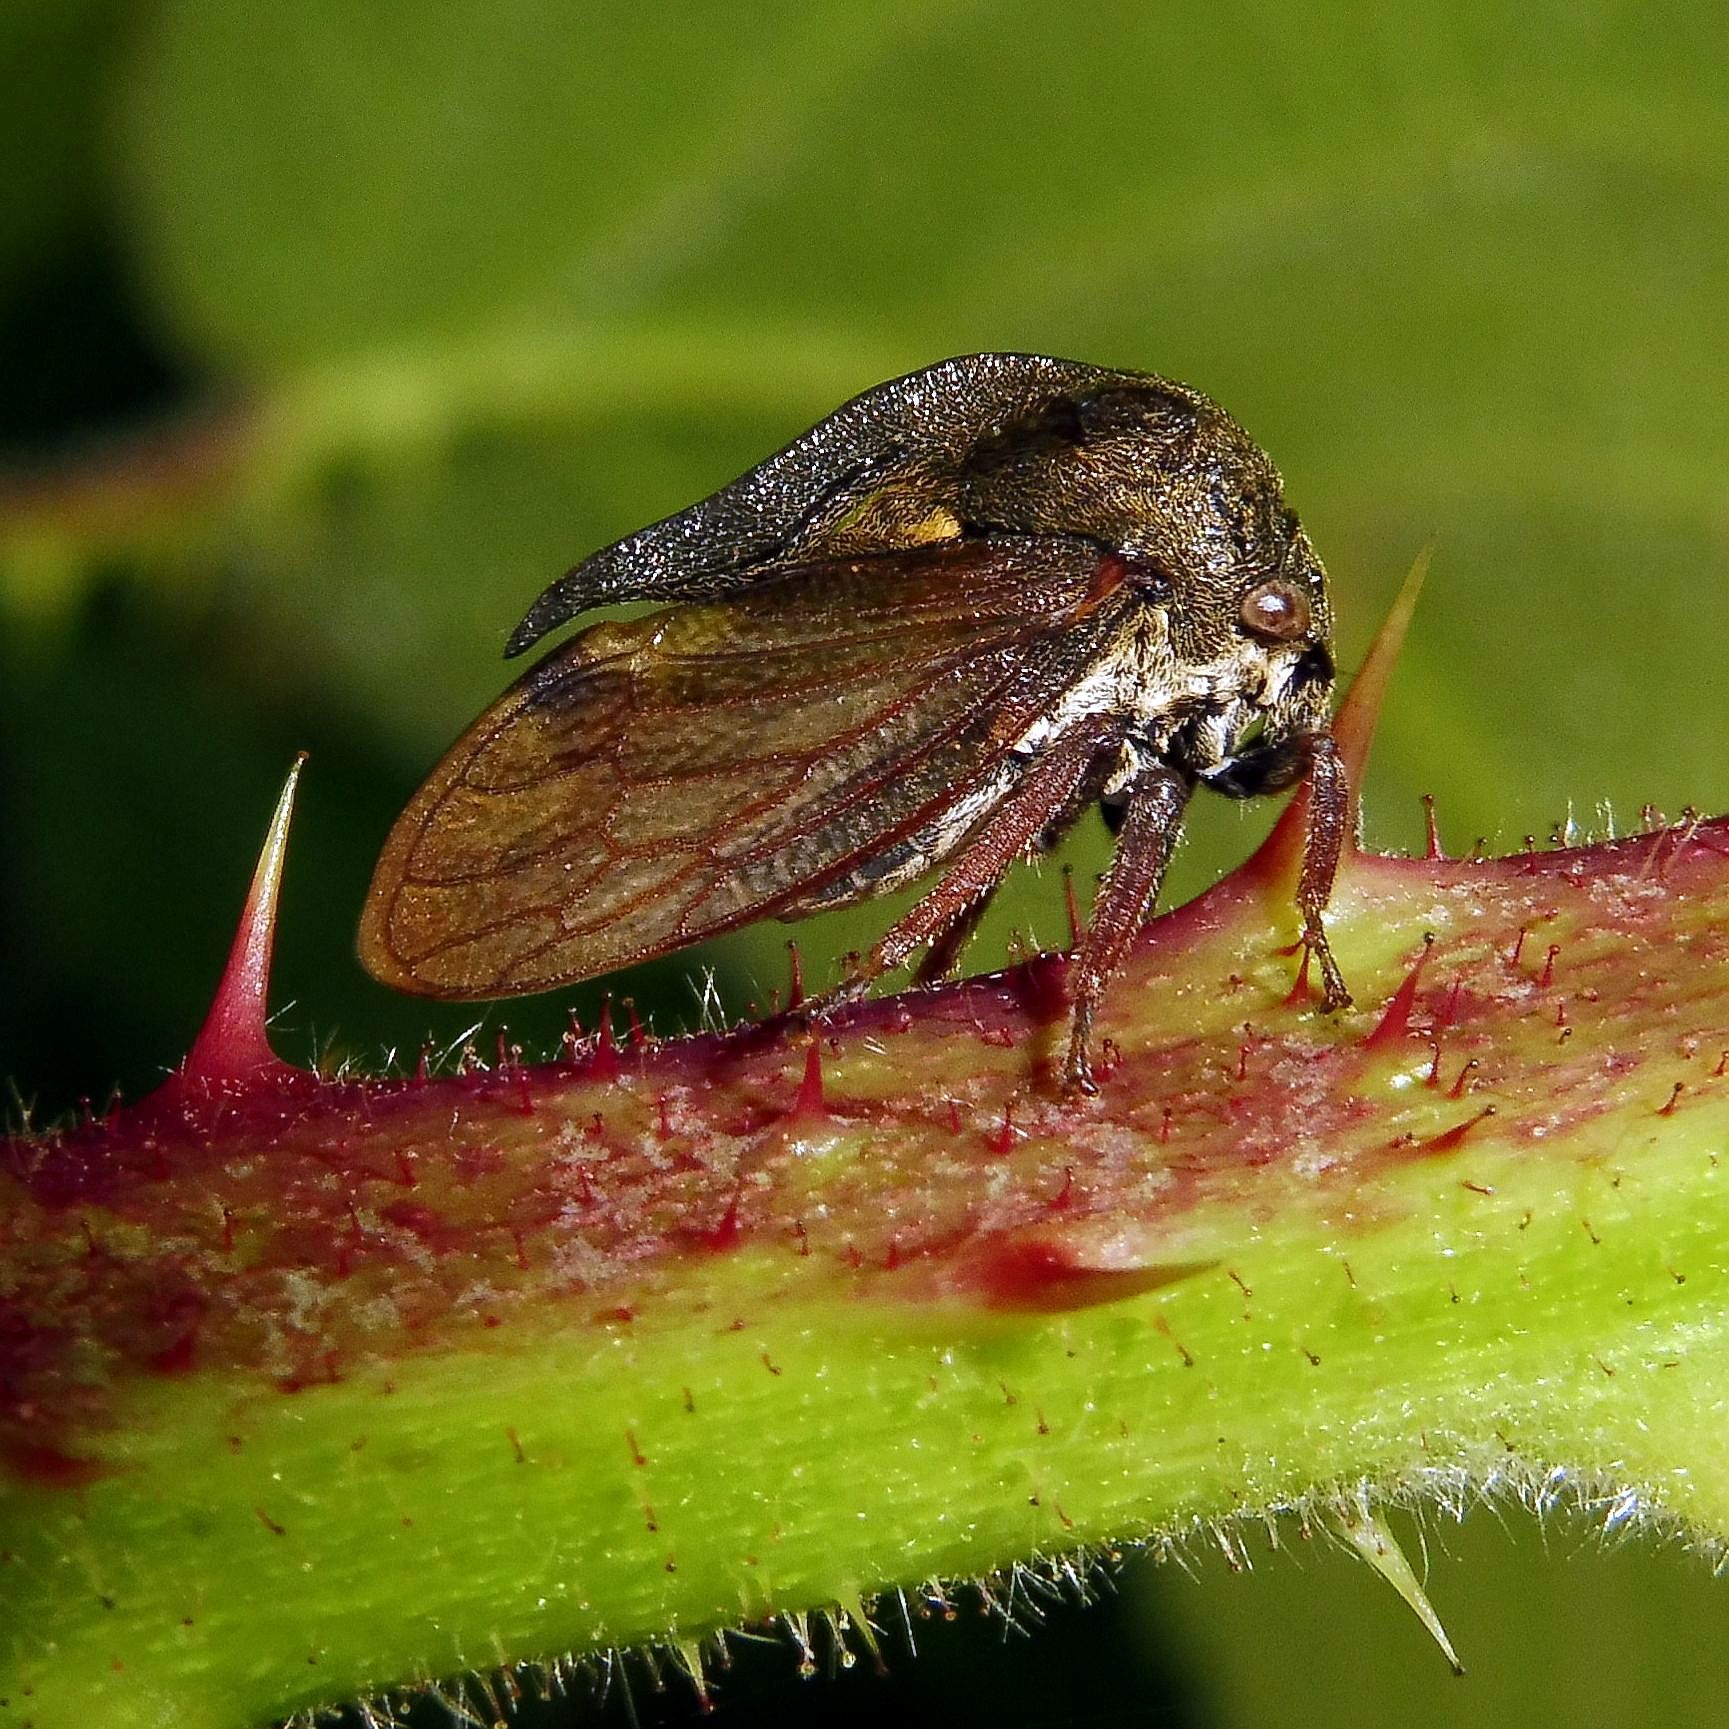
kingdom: Animalia
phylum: Arthropoda
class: Insecta
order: Hemiptera
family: Membracidae
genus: Centrotus
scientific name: Centrotus cornuta
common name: Treehopper
